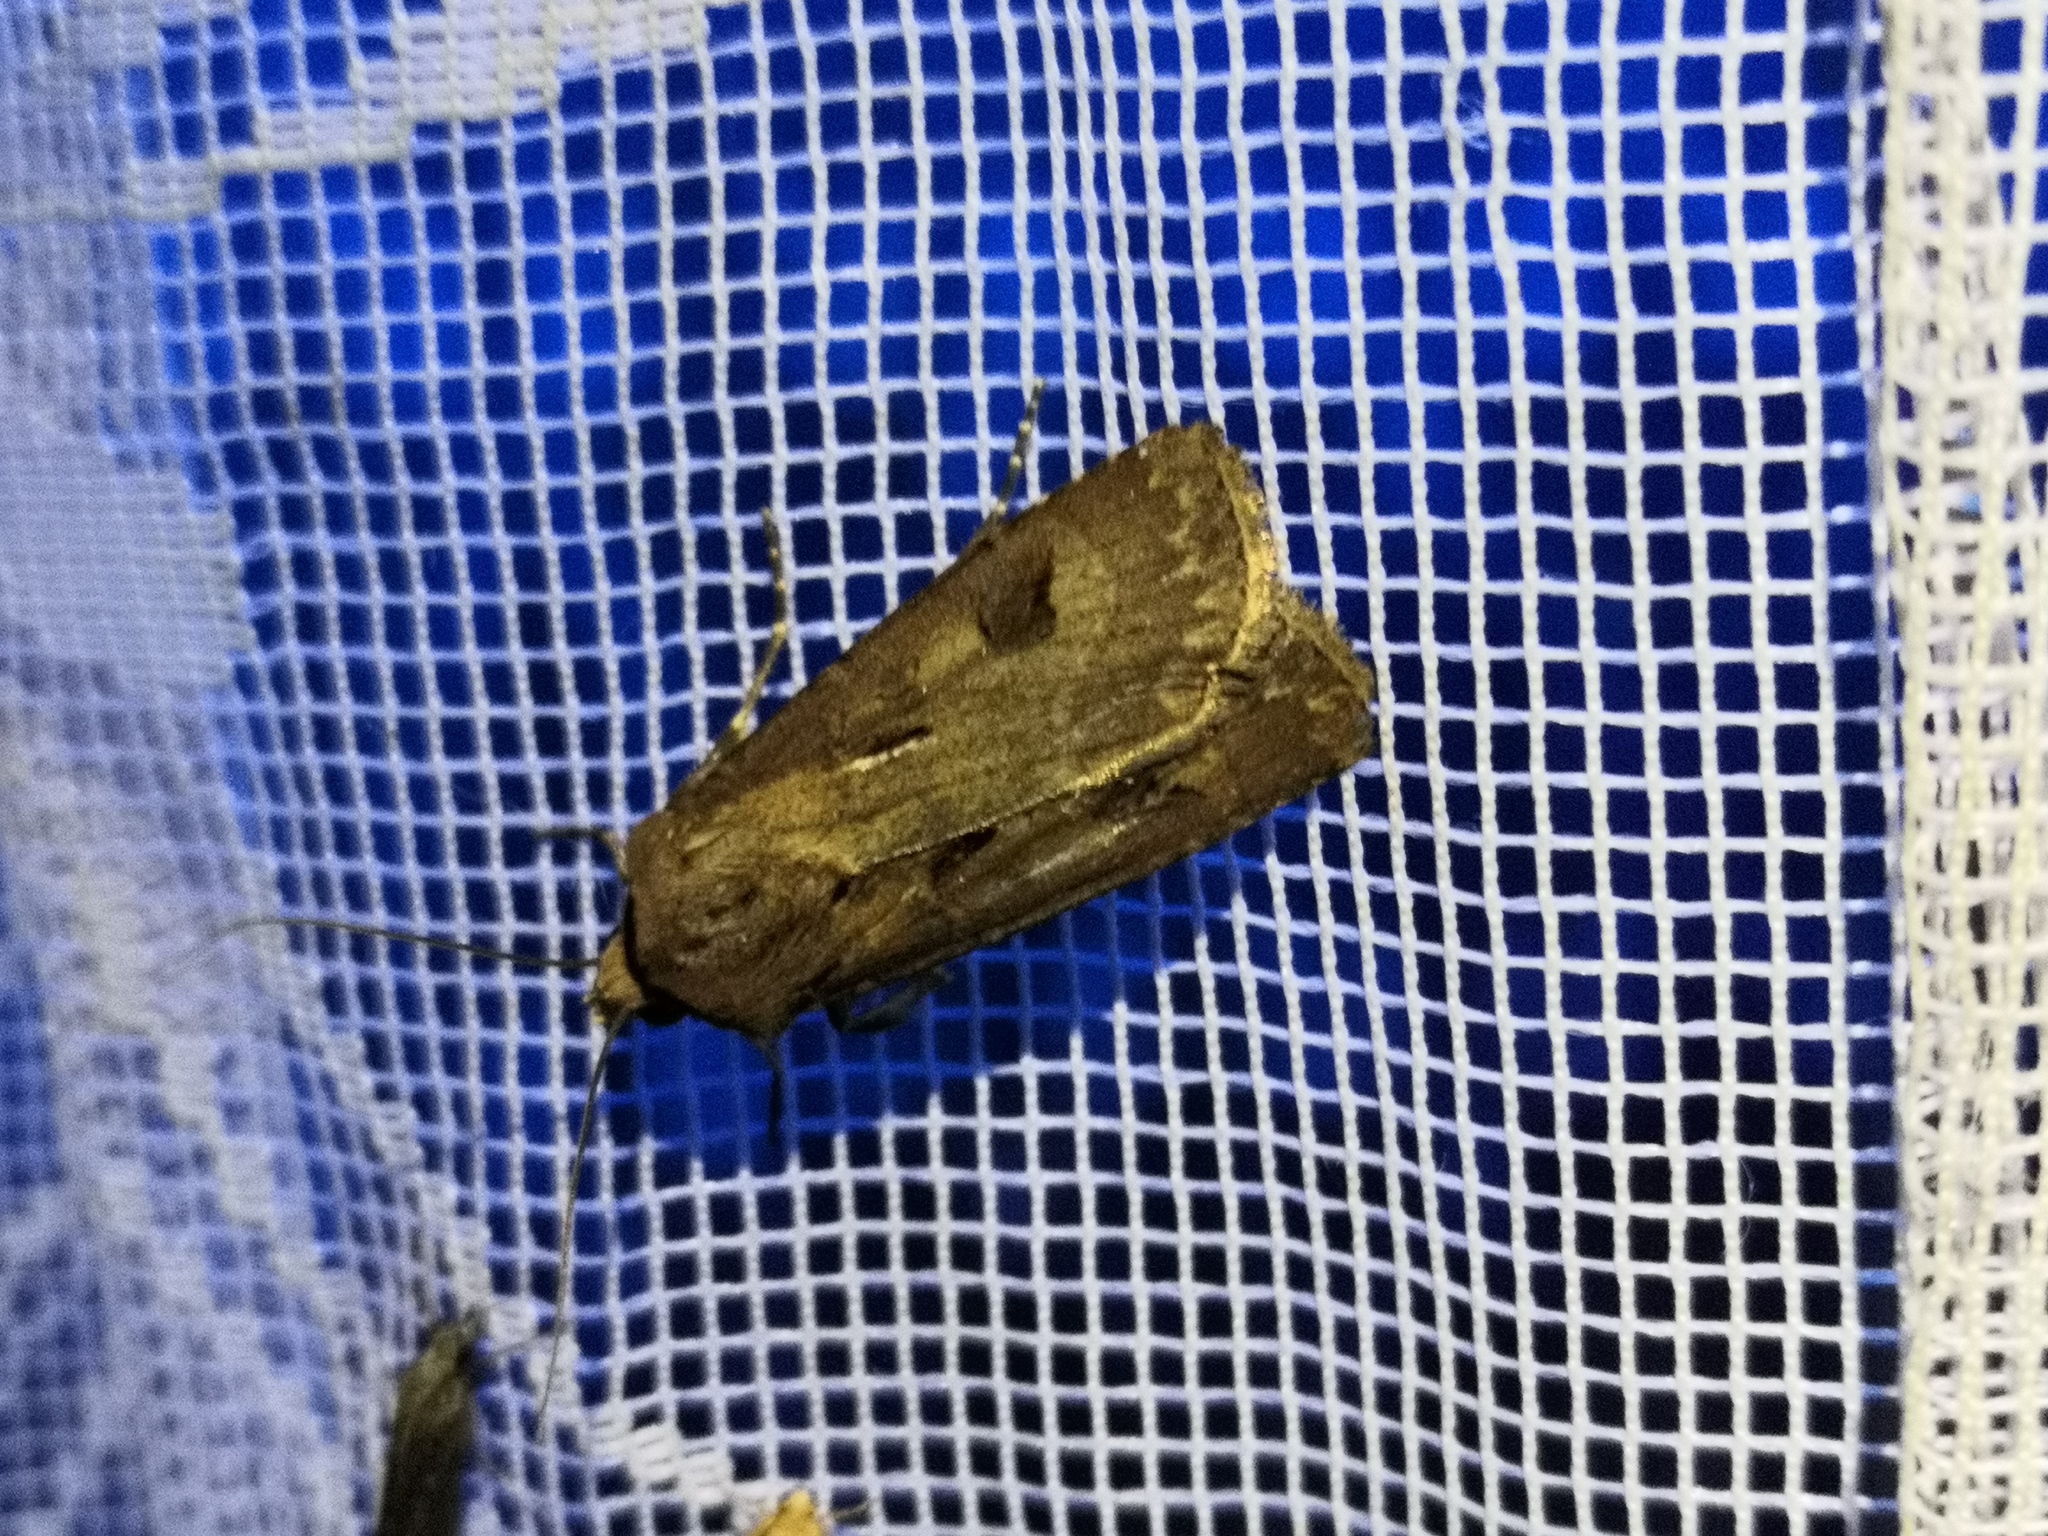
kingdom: Animalia
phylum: Arthropoda
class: Insecta
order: Lepidoptera
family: Noctuidae
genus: Agrotis
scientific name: Agrotis exclamationis
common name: Heart and dart
